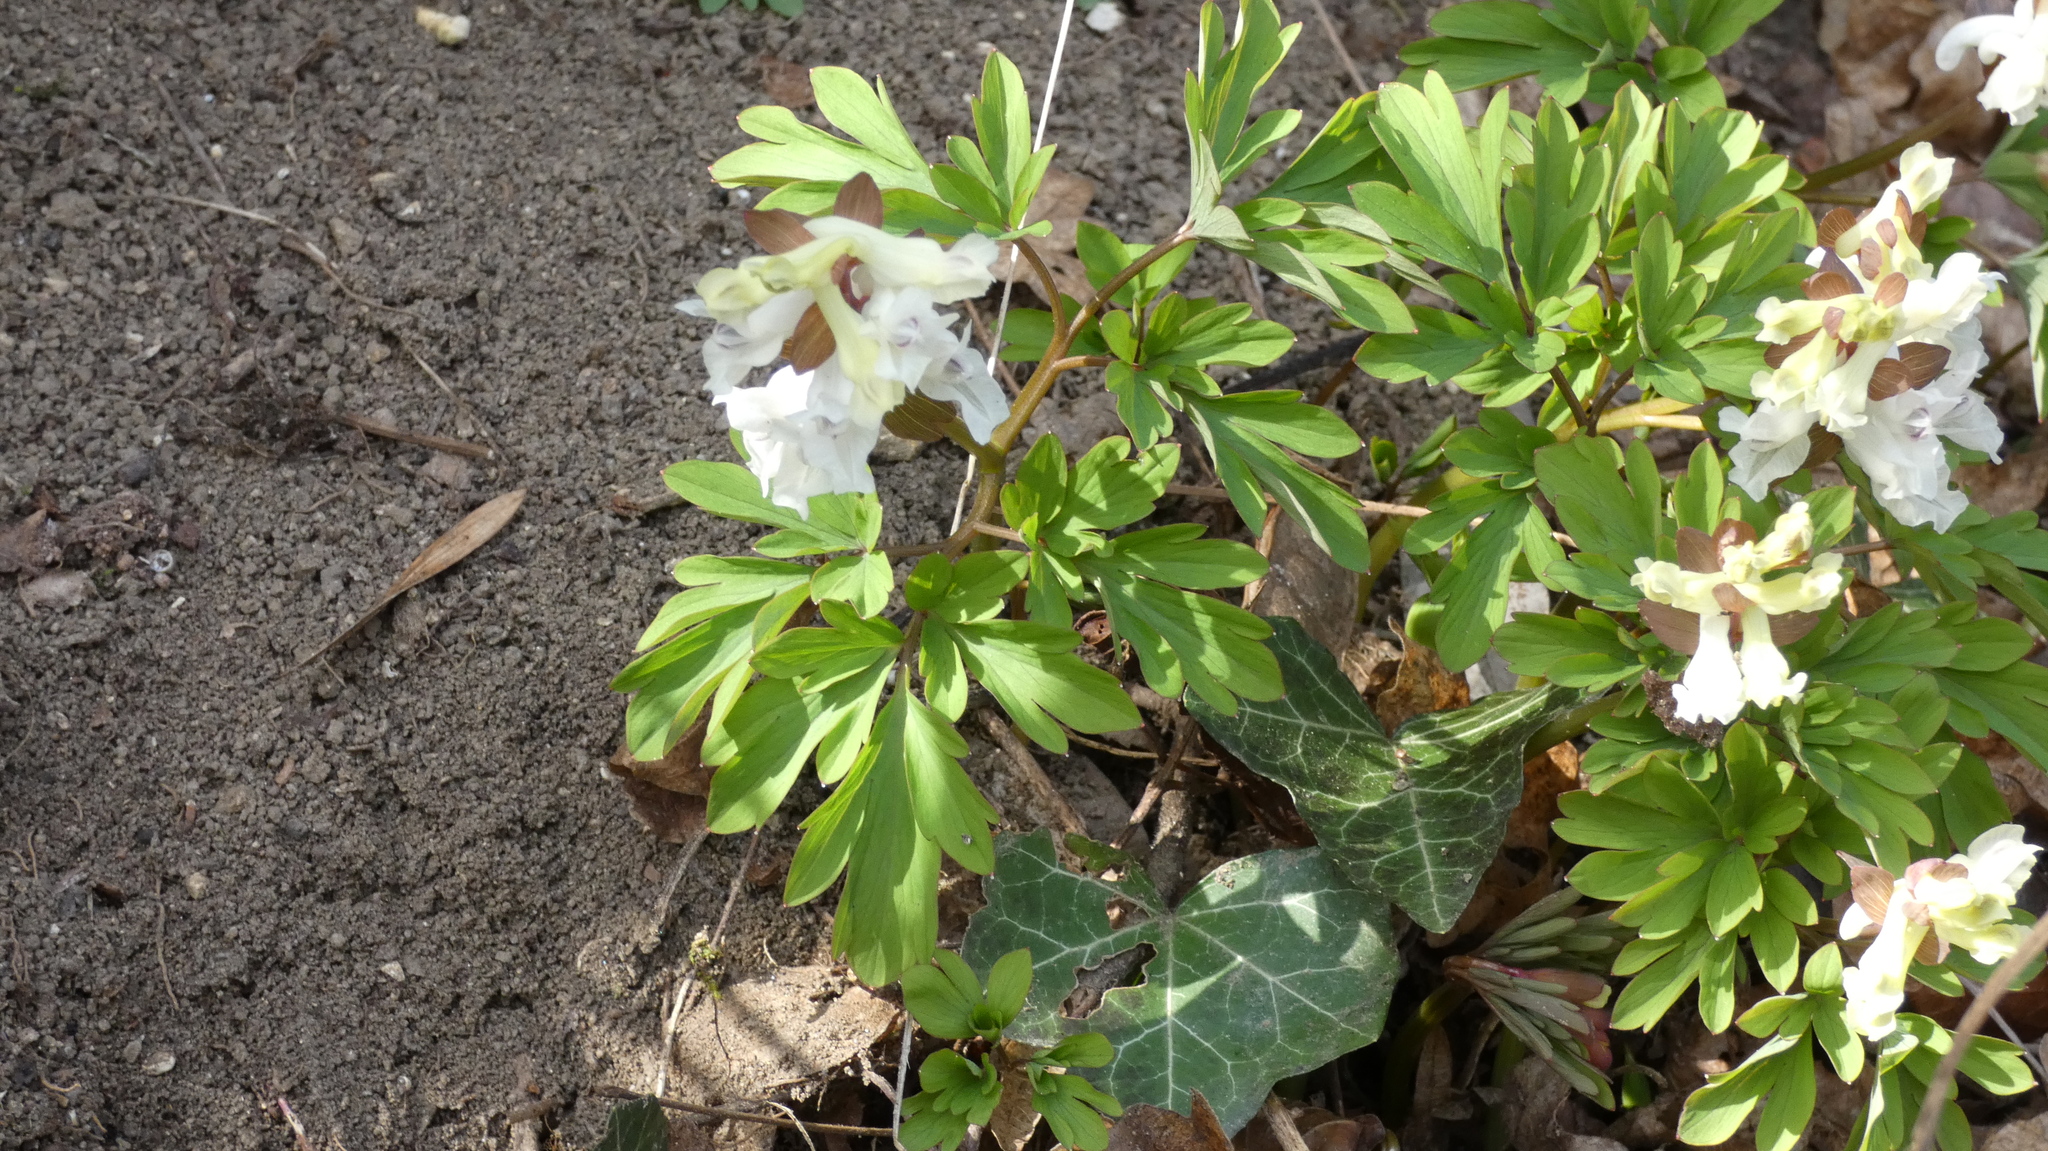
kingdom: Plantae
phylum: Tracheophyta
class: Magnoliopsida
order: Ranunculales
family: Papaveraceae
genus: Corydalis
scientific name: Corydalis cava
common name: Hollowroot
